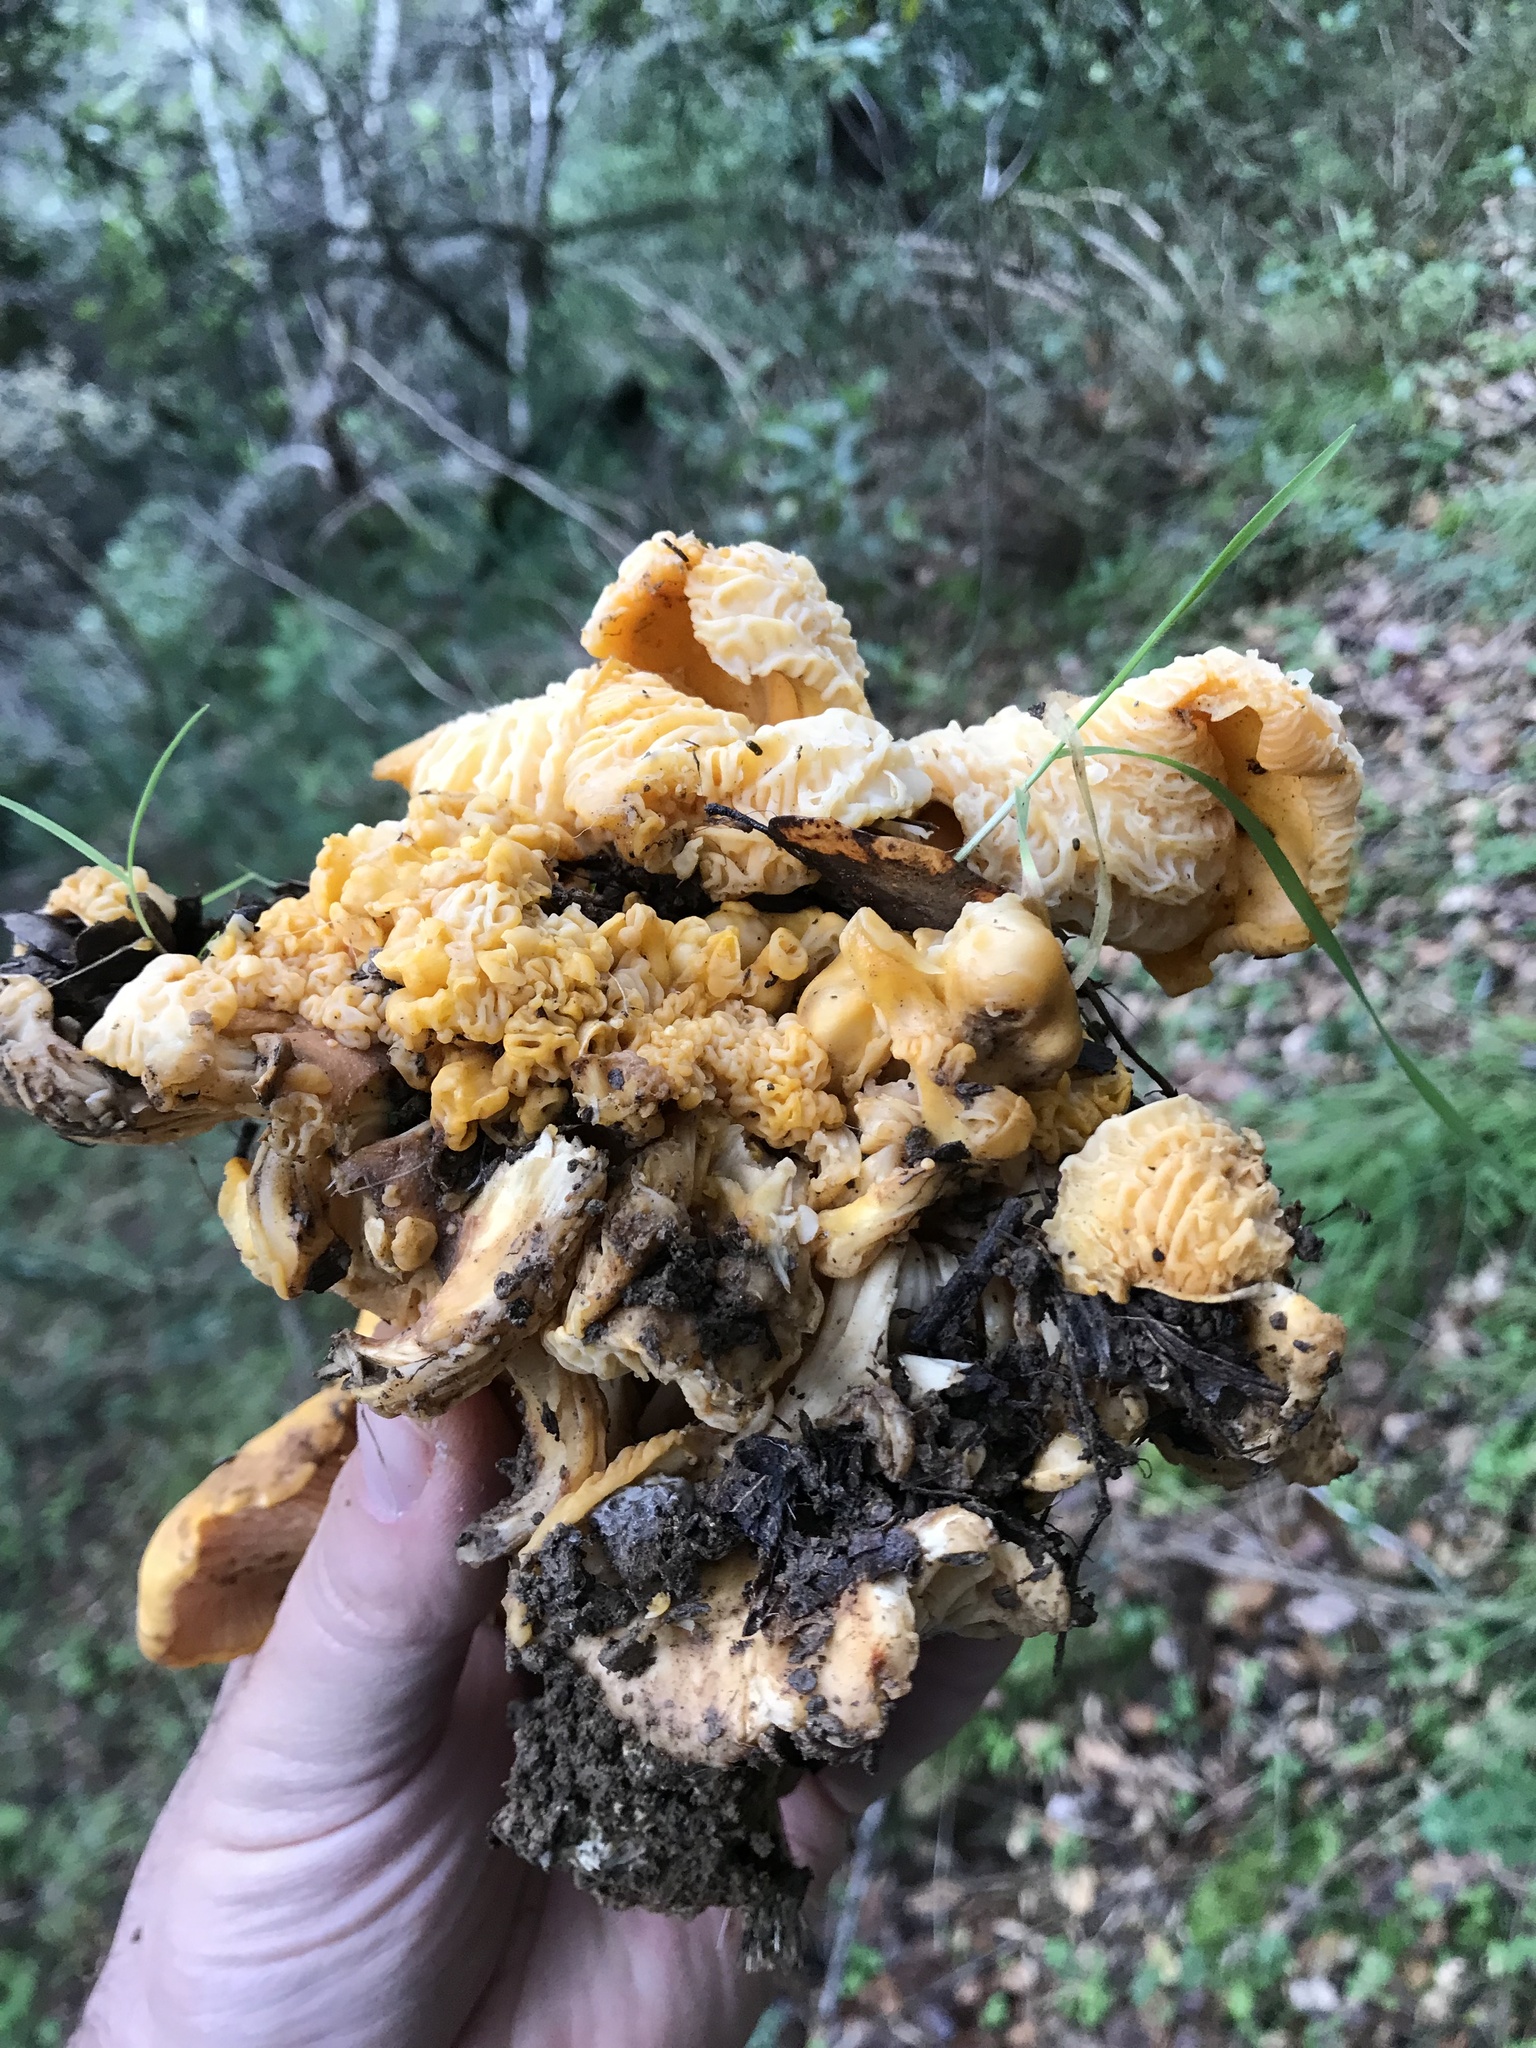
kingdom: Fungi
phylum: Basidiomycota
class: Agaricomycetes
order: Cantharellales
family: Hydnaceae
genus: Cantharellus
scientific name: Cantharellus californicus
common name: California golden chanterelle
